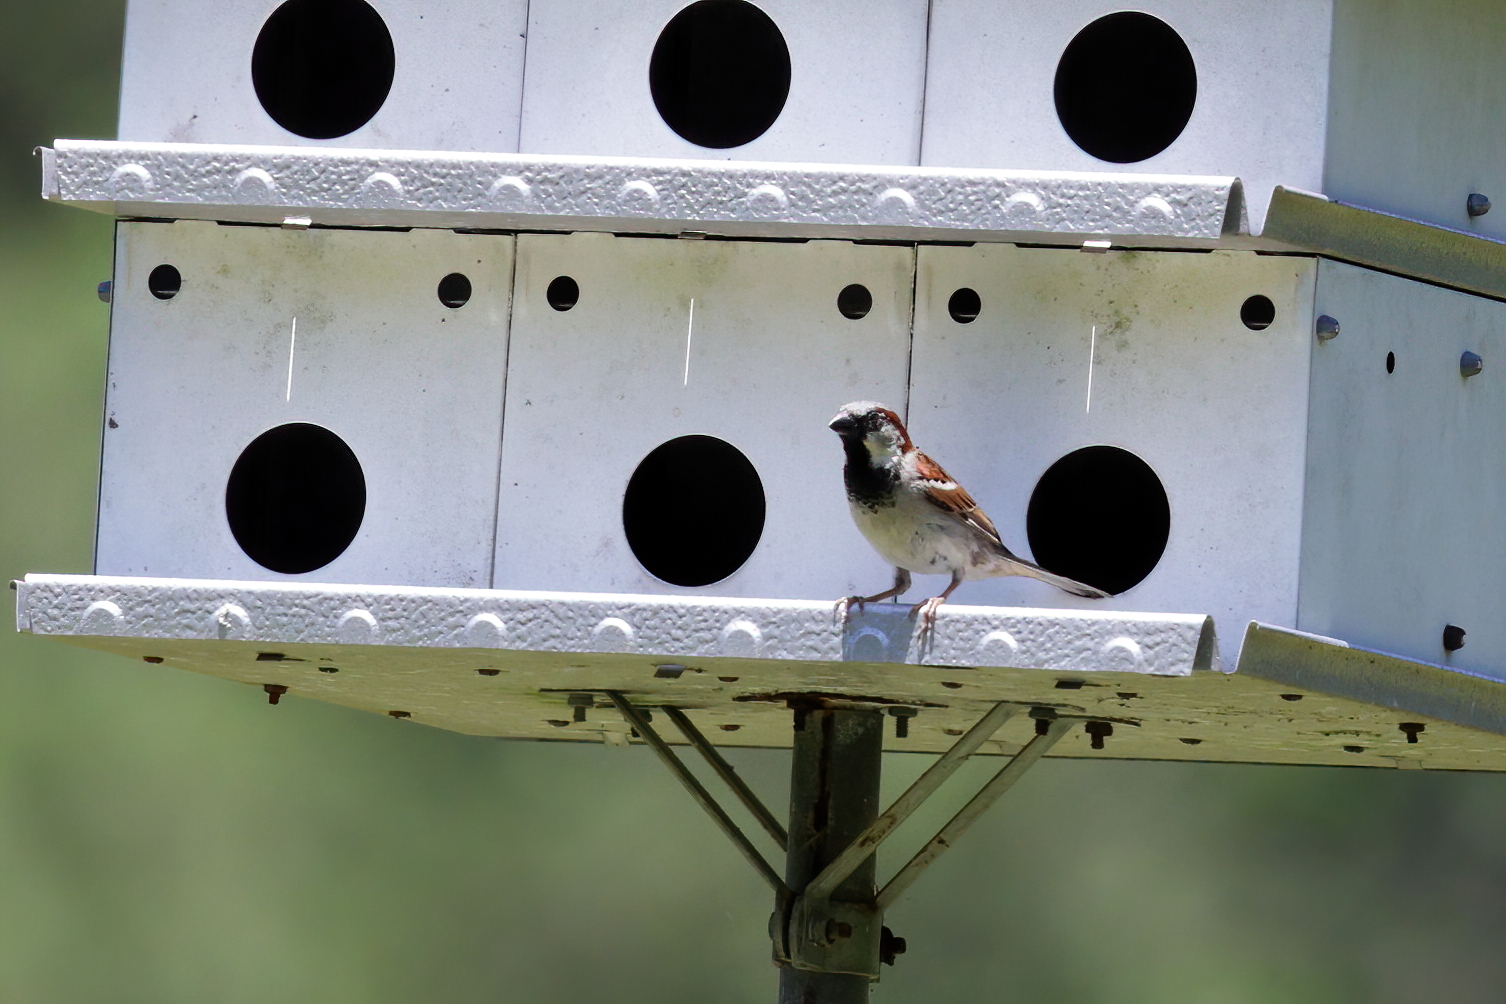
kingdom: Animalia
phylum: Chordata
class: Aves
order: Passeriformes
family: Passeridae
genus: Passer
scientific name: Passer domesticus
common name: House sparrow
